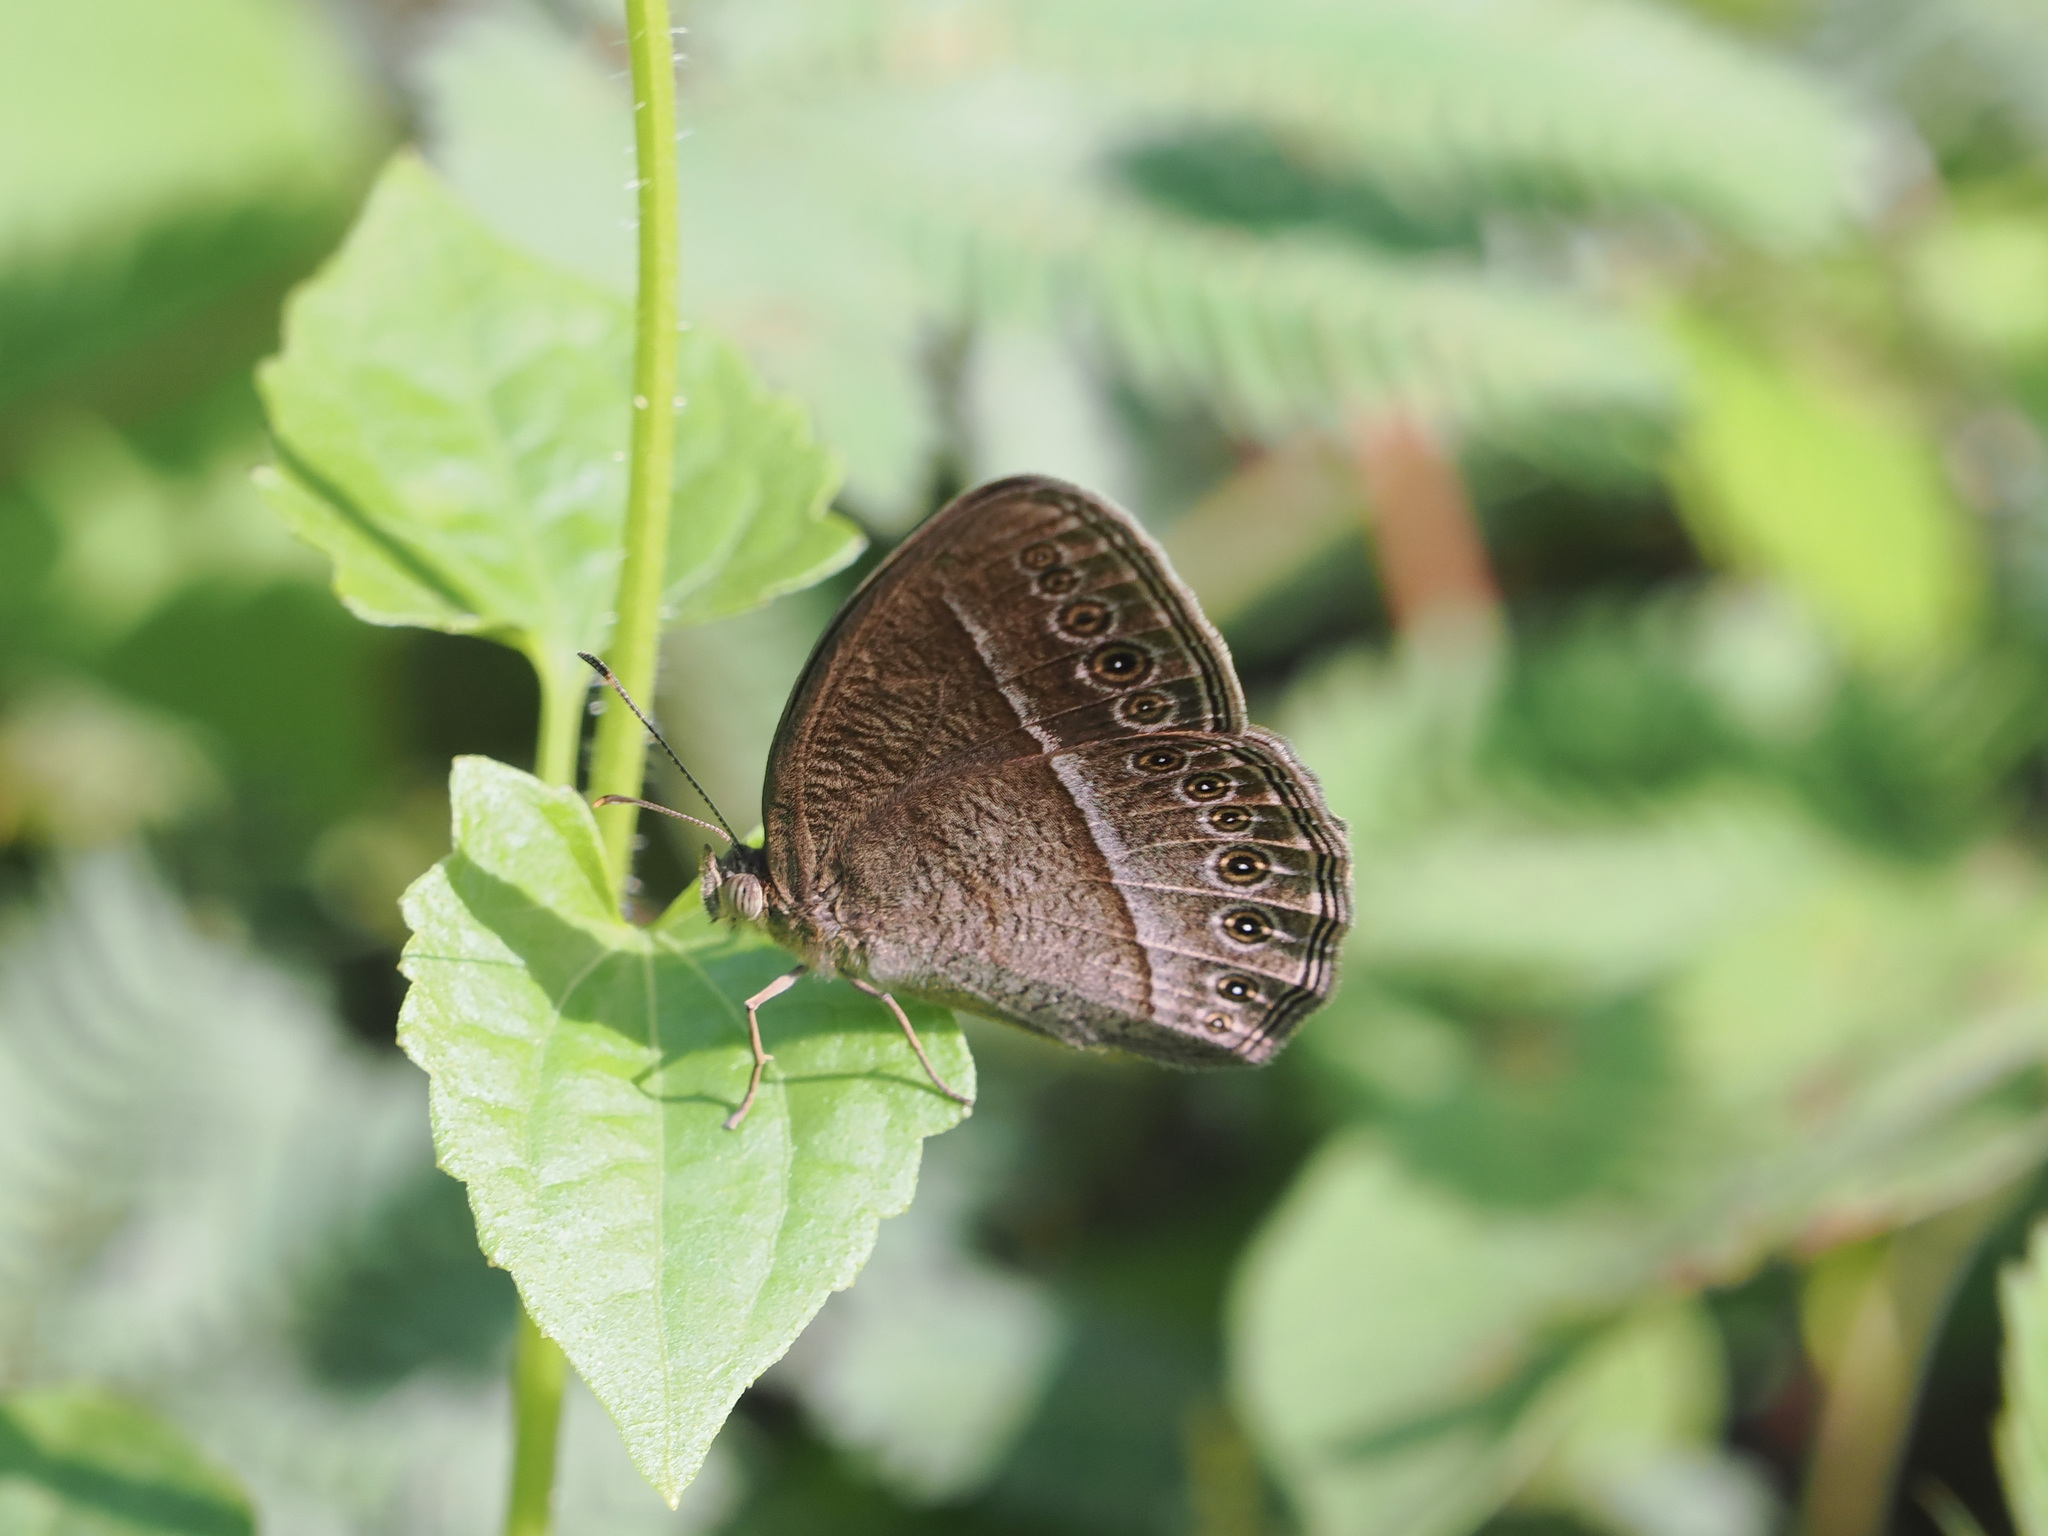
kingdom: Animalia
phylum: Arthropoda
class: Insecta
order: Lepidoptera
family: Nymphalidae
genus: Mycalesis
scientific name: Mycalesis Telinga janardana
